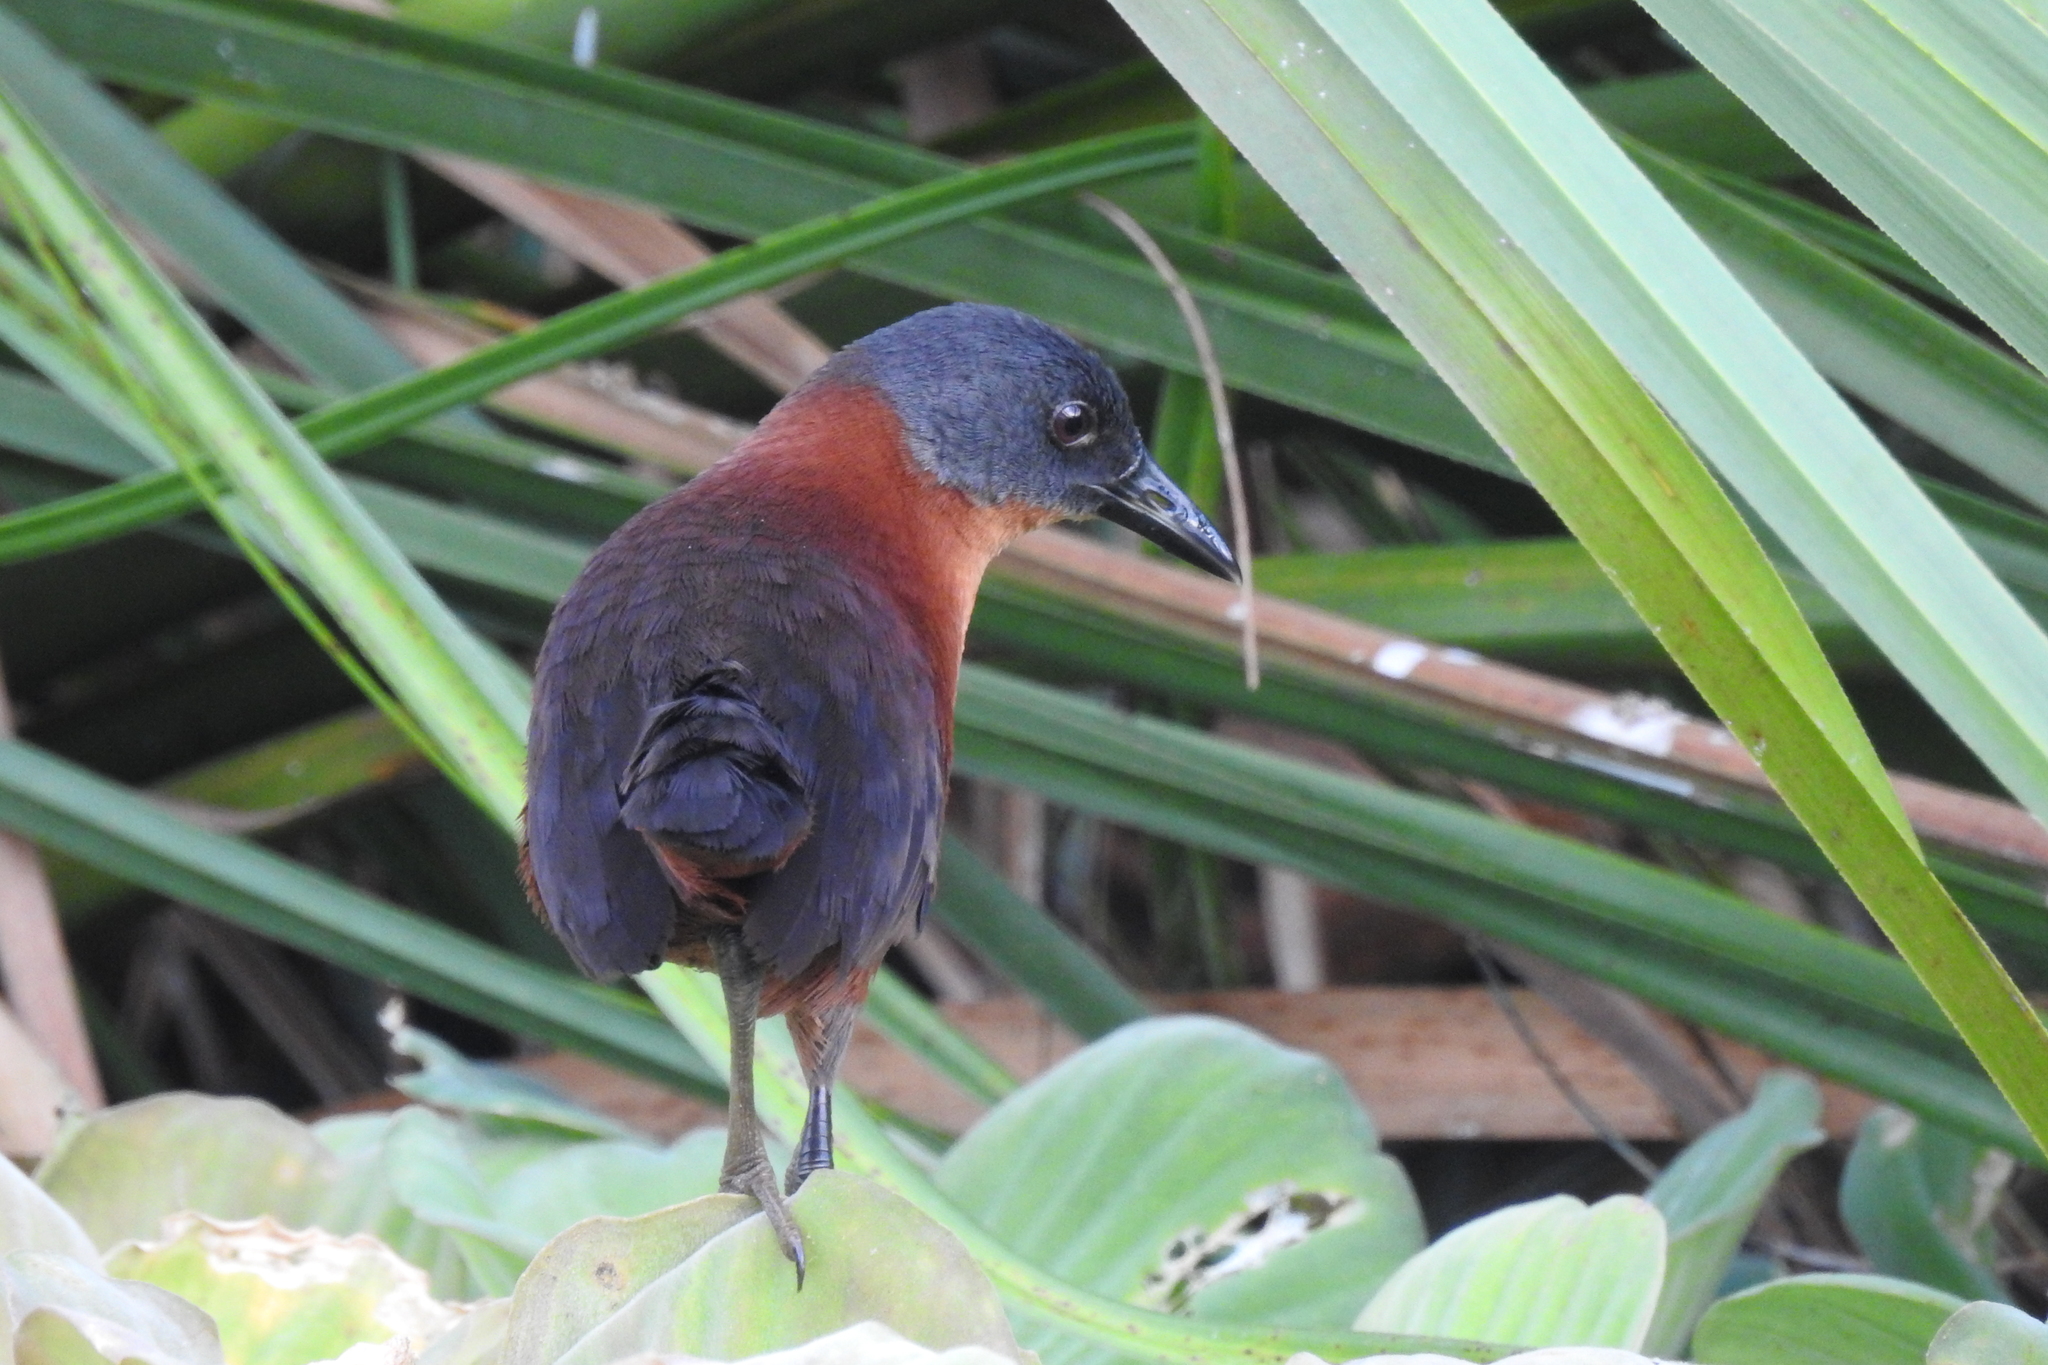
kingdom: Animalia
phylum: Chordata
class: Aves
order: Gruiformes
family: Rallidae
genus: Laterallus
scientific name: Laterallus ruber
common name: Ruddy crake
